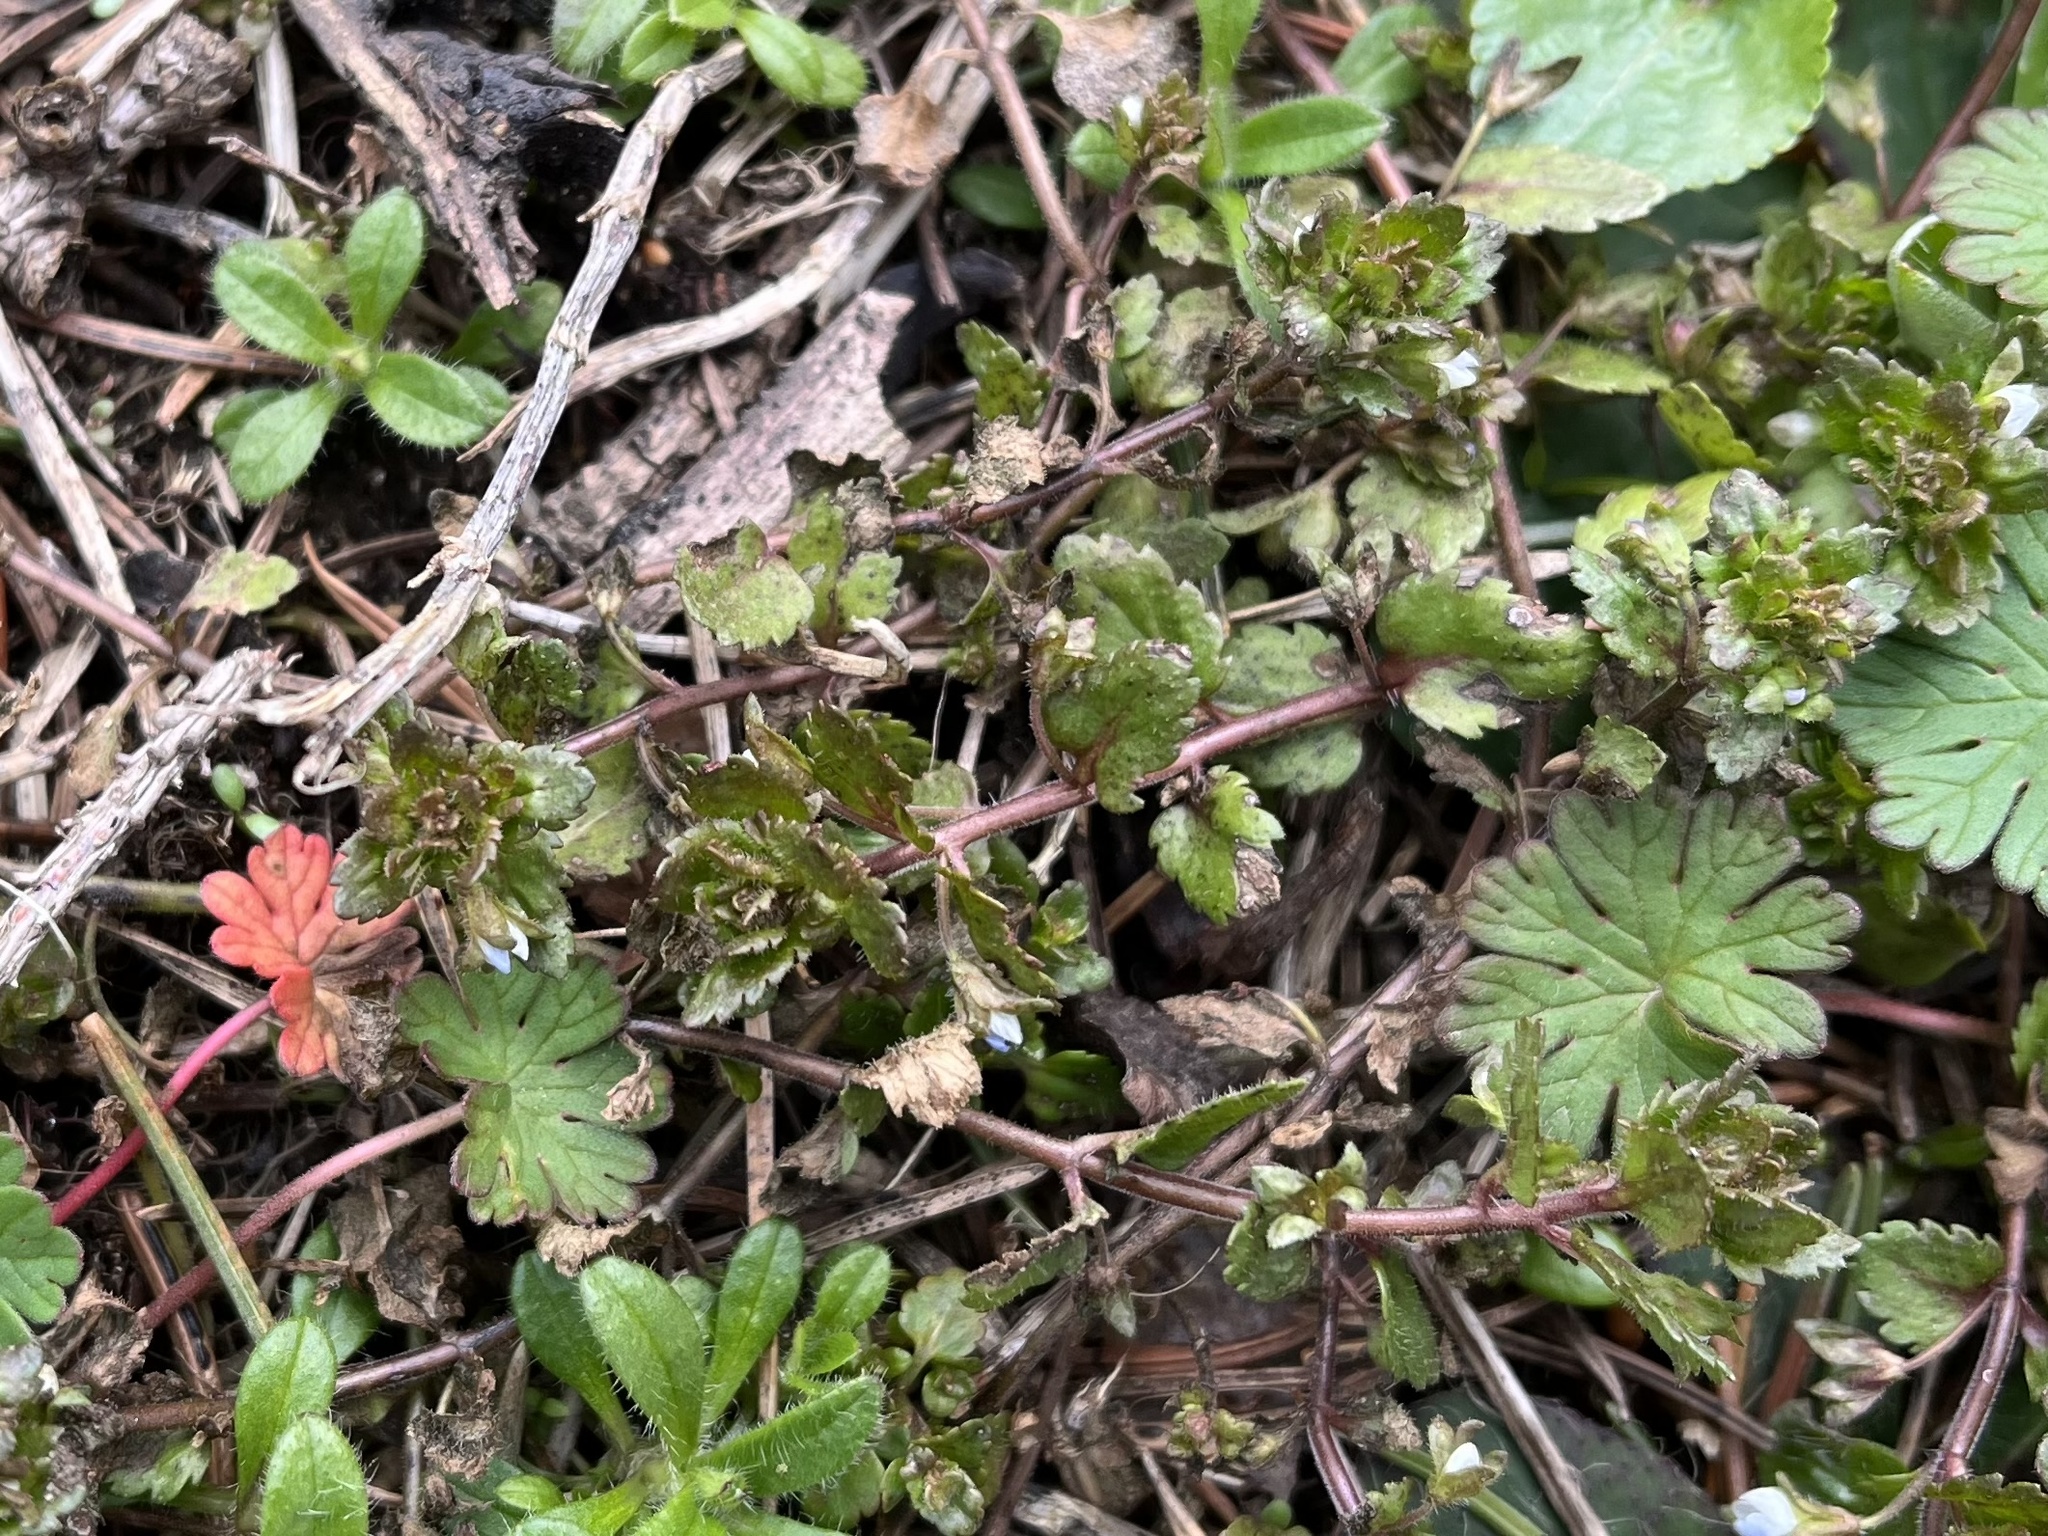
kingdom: Plantae
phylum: Tracheophyta
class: Magnoliopsida
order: Lamiales
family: Plantaginaceae
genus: Veronica
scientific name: Veronica agrestis
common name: Green field-speedwell
